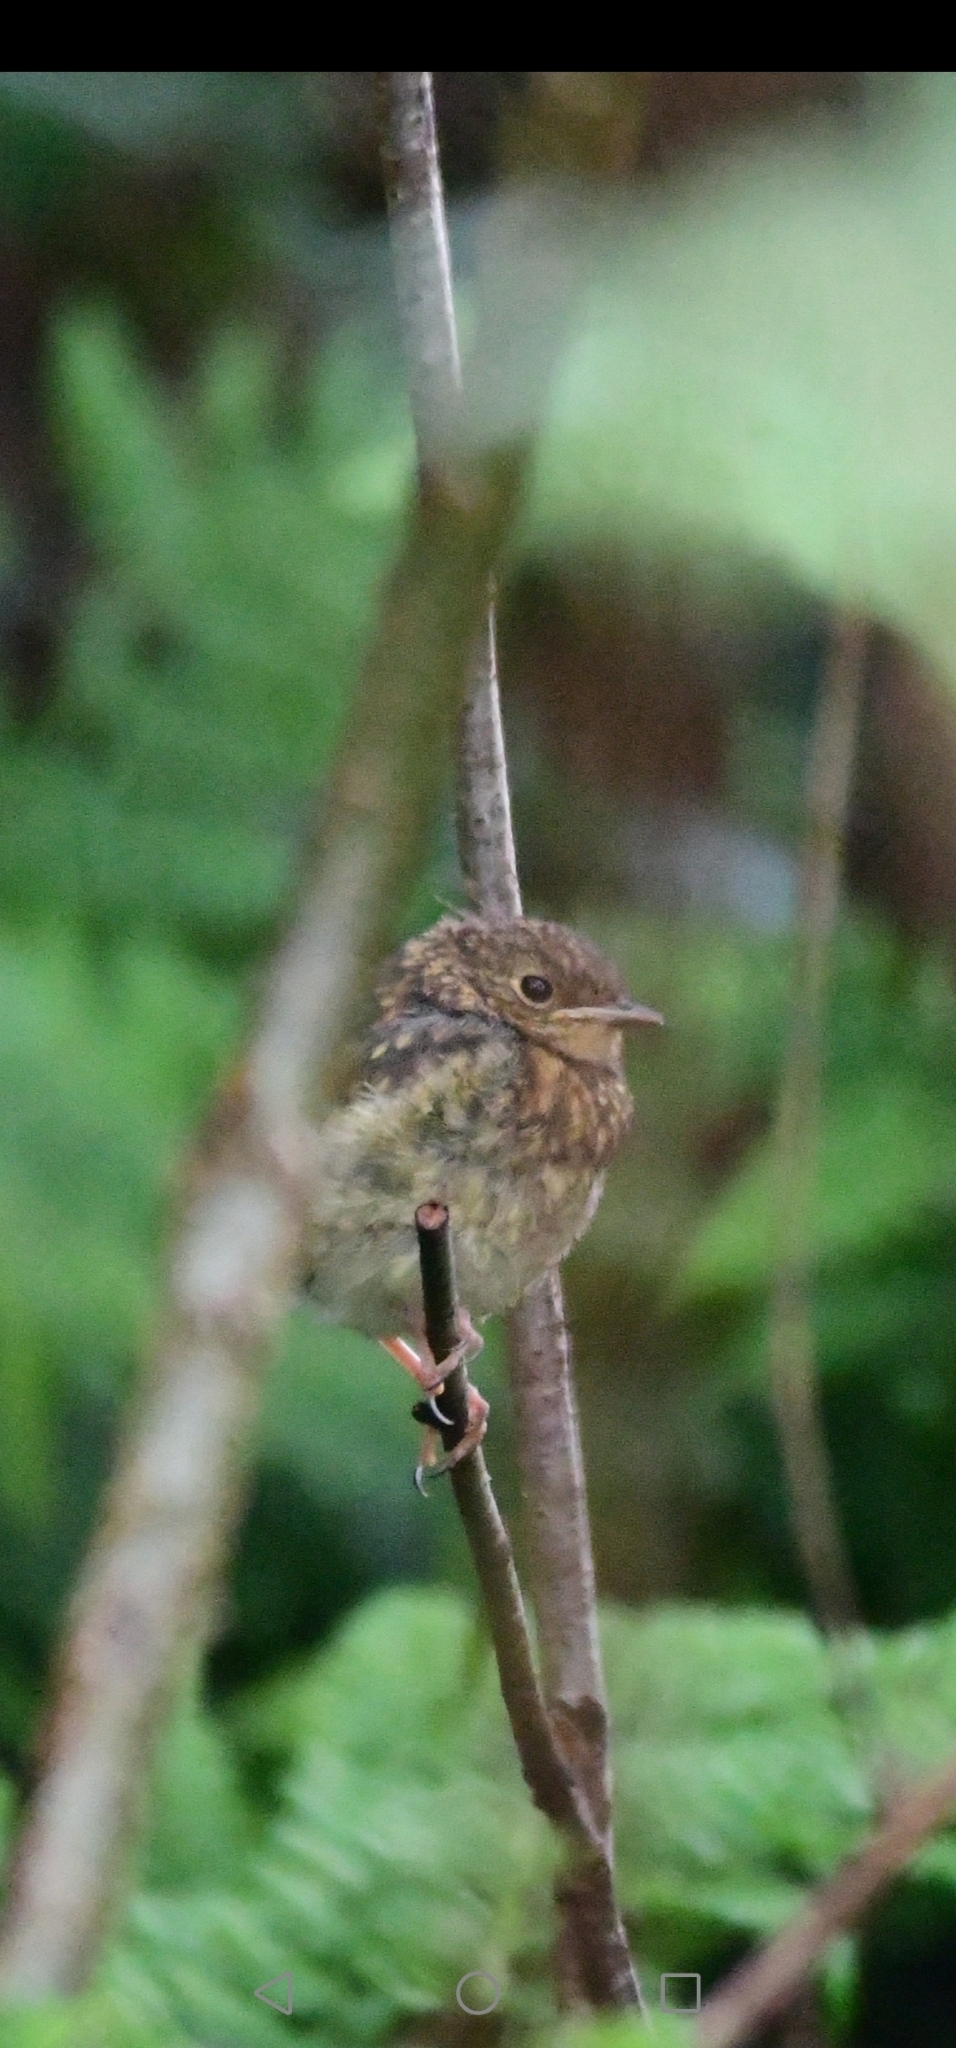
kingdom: Animalia
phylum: Chordata
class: Aves
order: Passeriformes
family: Muscicapidae
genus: Erithacus
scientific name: Erithacus rubecula
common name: European robin
